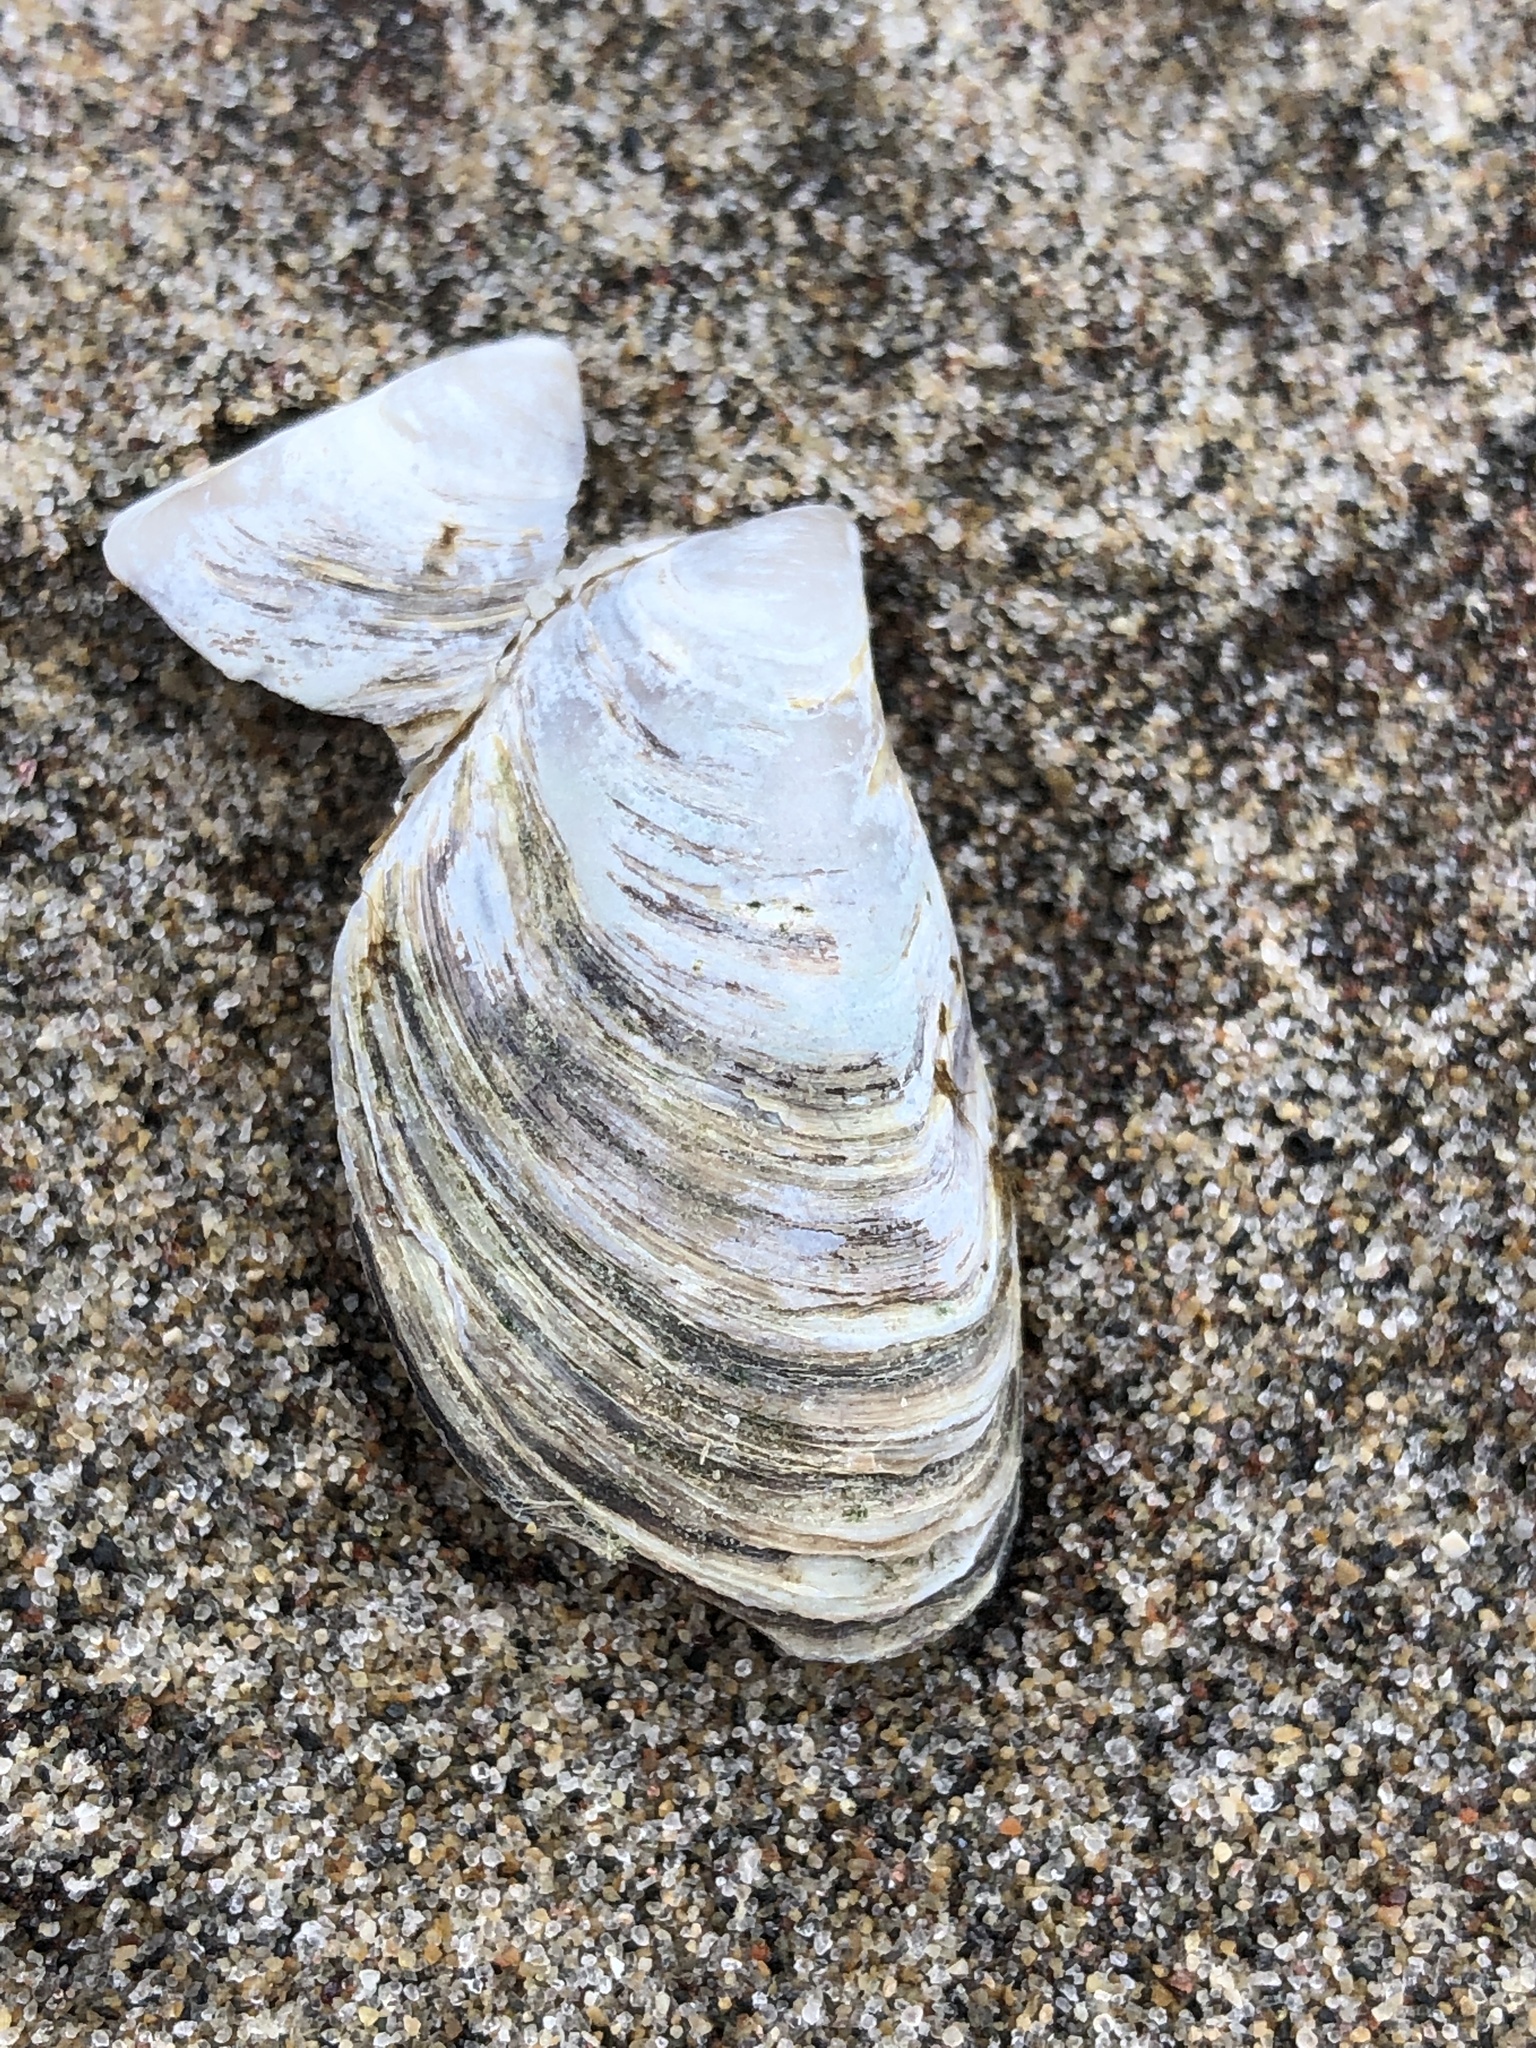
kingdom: Animalia
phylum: Mollusca
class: Bivalvia
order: Myida
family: Dreissenidae
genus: Dreissena
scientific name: Dreissena polymorpha
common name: Zebra mussel
